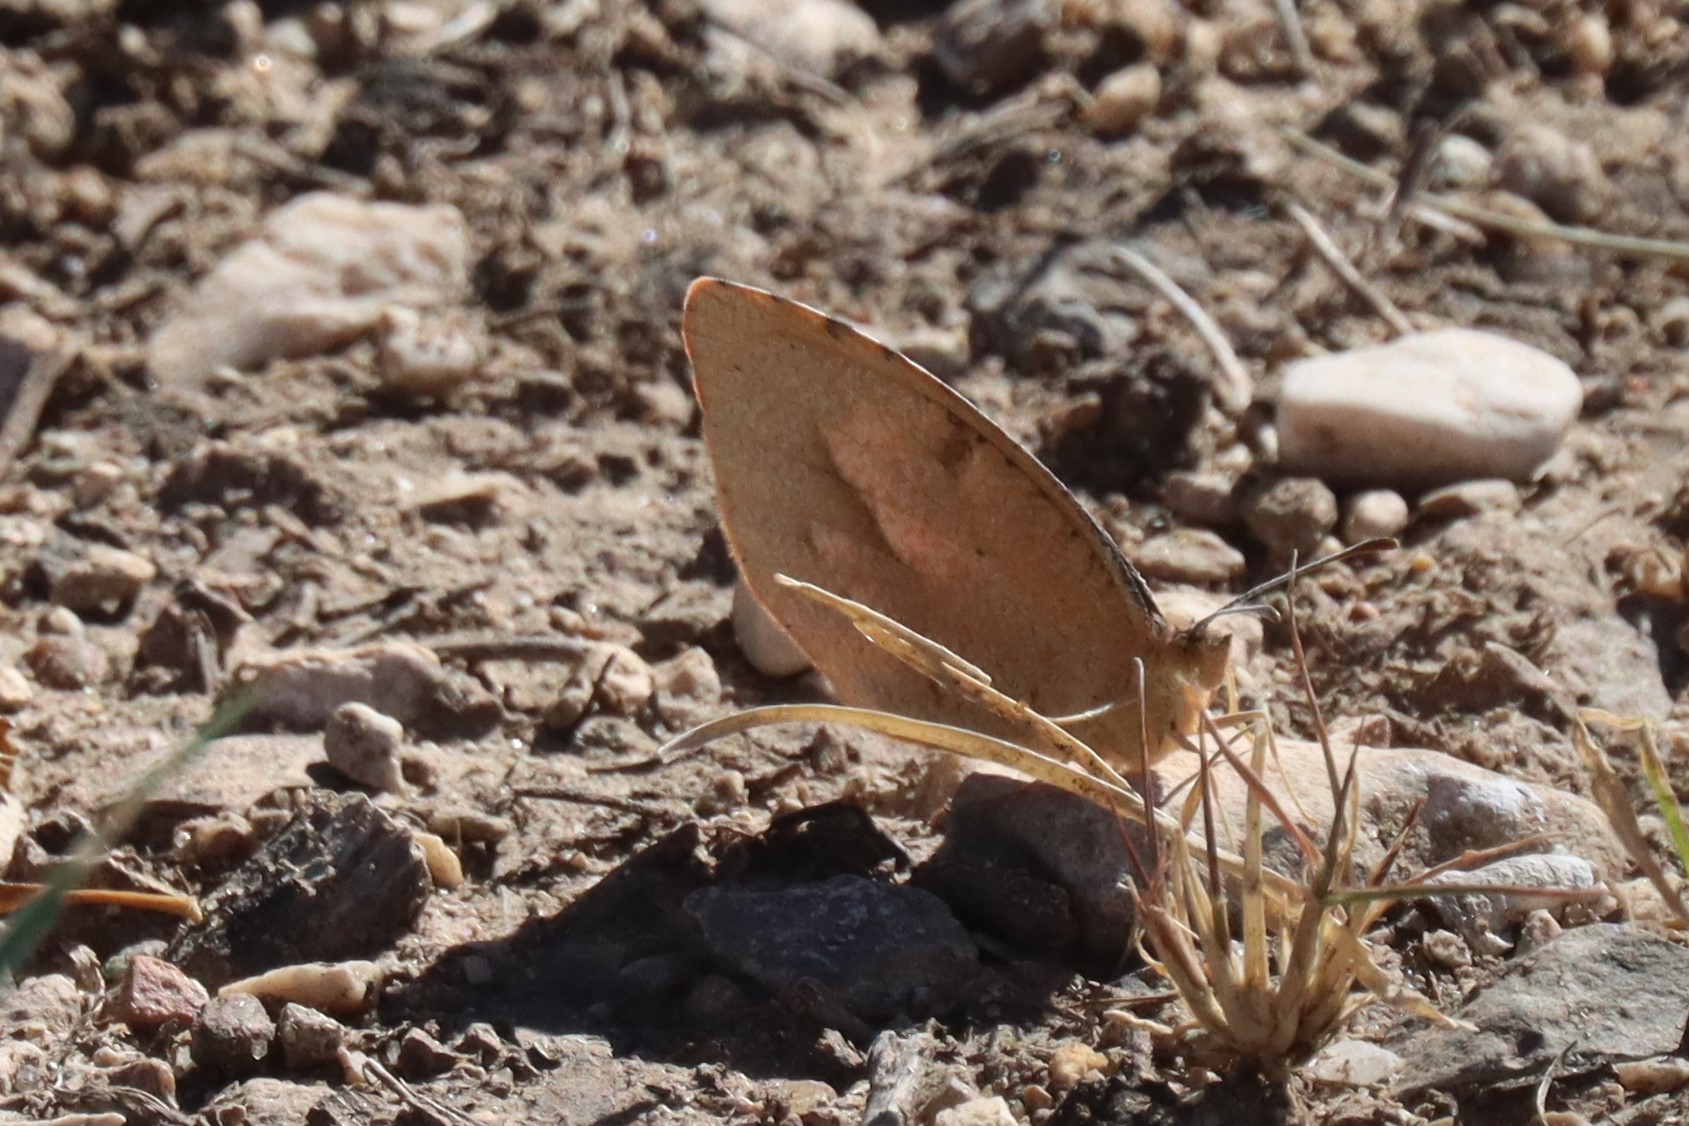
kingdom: Animalia
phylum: Arthropoda
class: Insecta
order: Lepidoptera
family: Pieridae
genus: Abaeis
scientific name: Abaeis nicippe
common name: Sleepy orange
